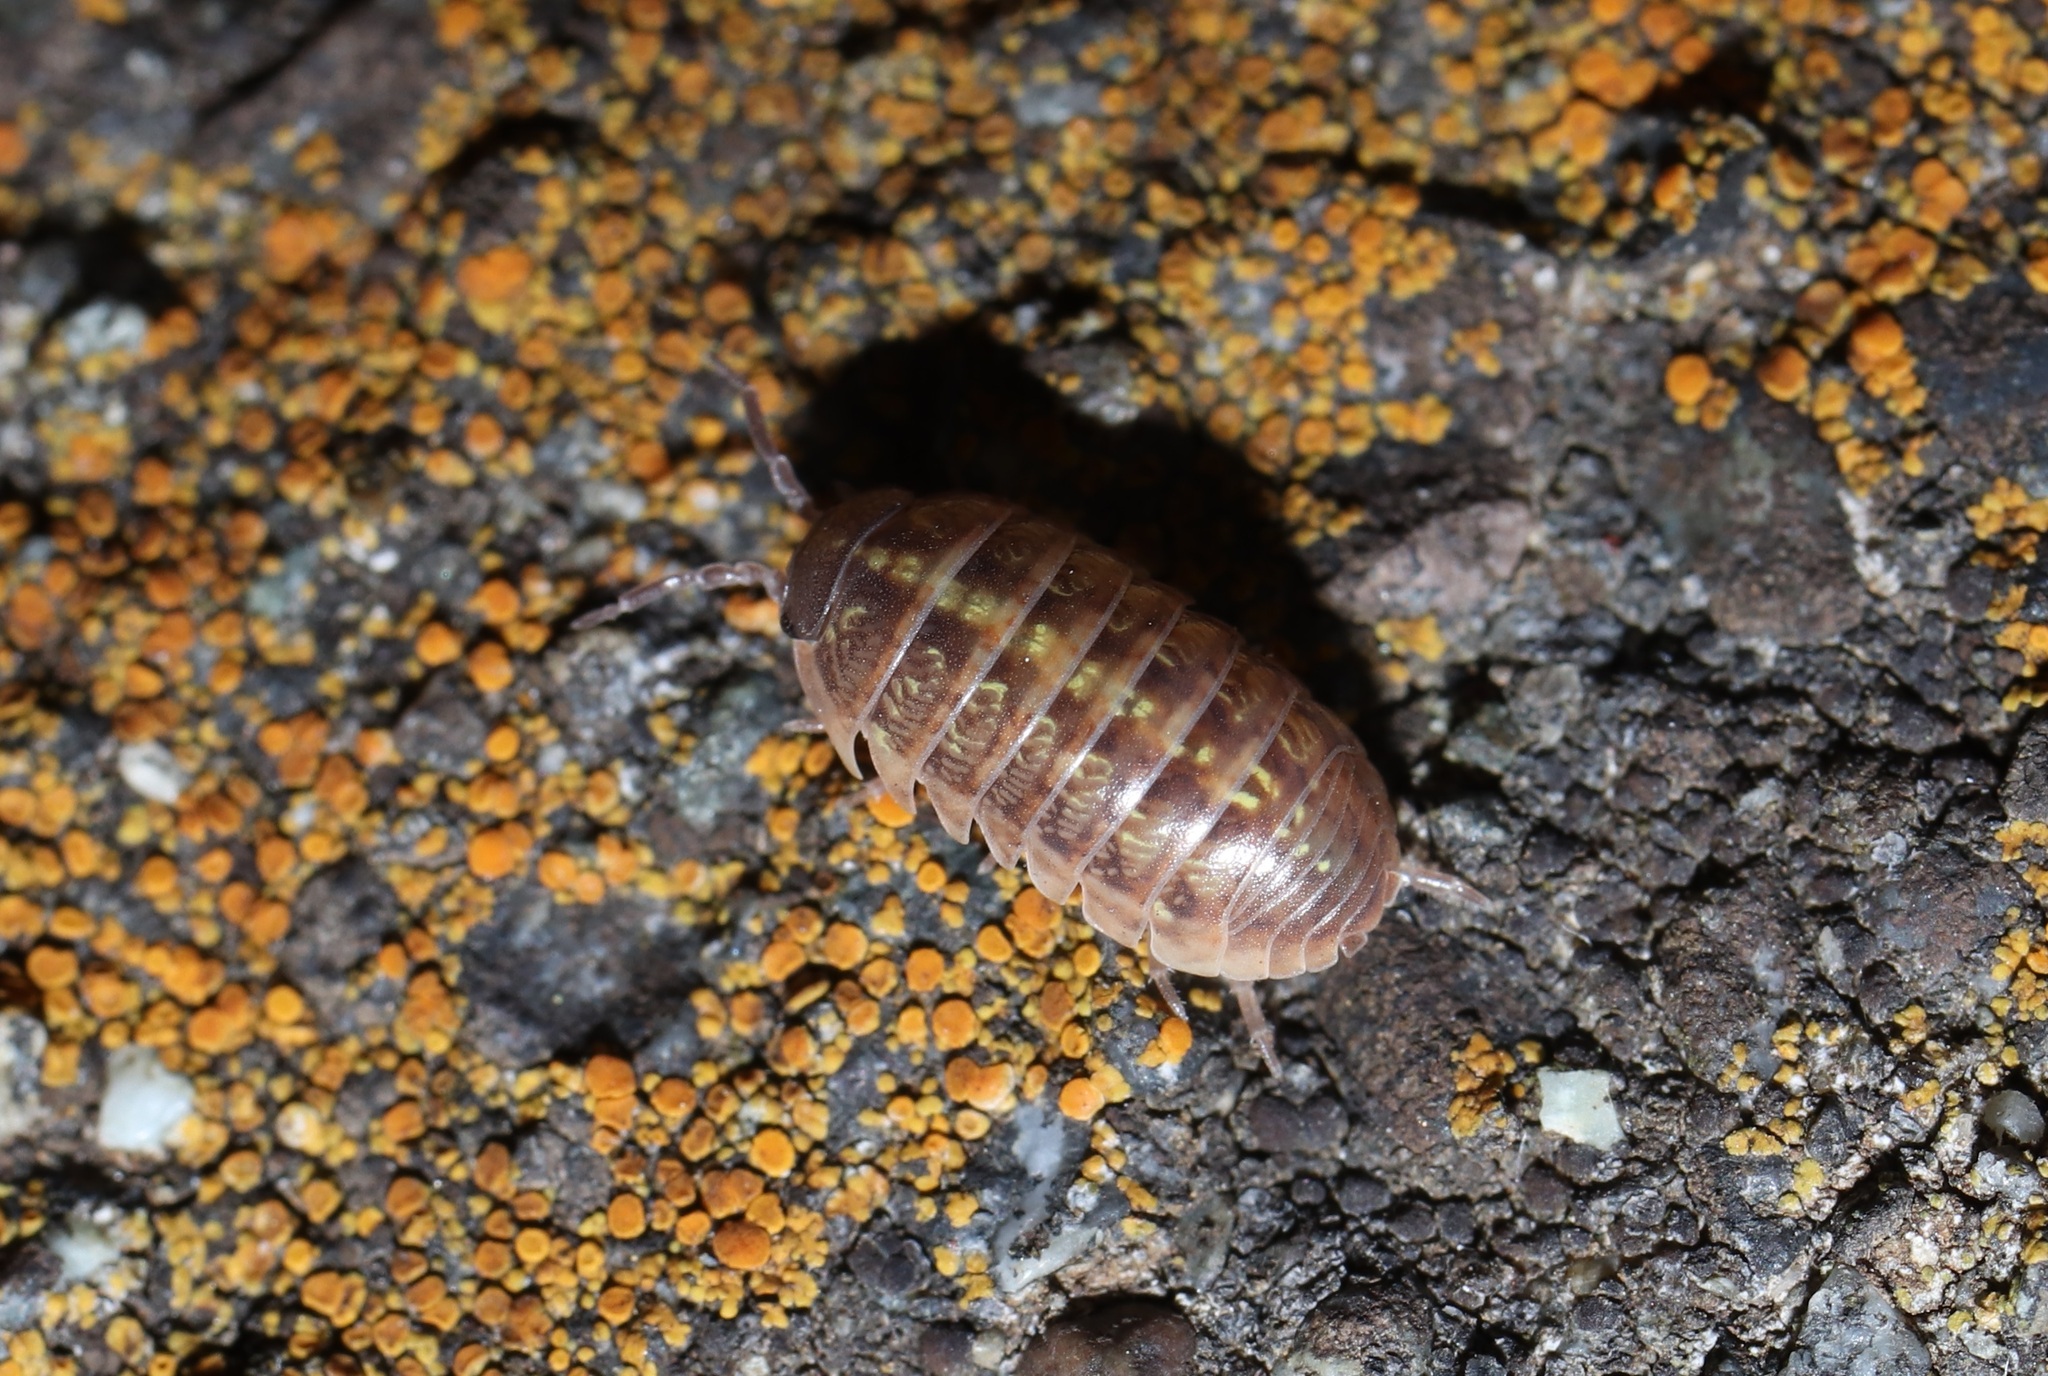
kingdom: Animalia
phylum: Arthropoda
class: Malacostraca
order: Isopoda
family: Armadillidiidae
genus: Armadillidium
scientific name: Armadillidium vulgare
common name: Common pill woodlouse
